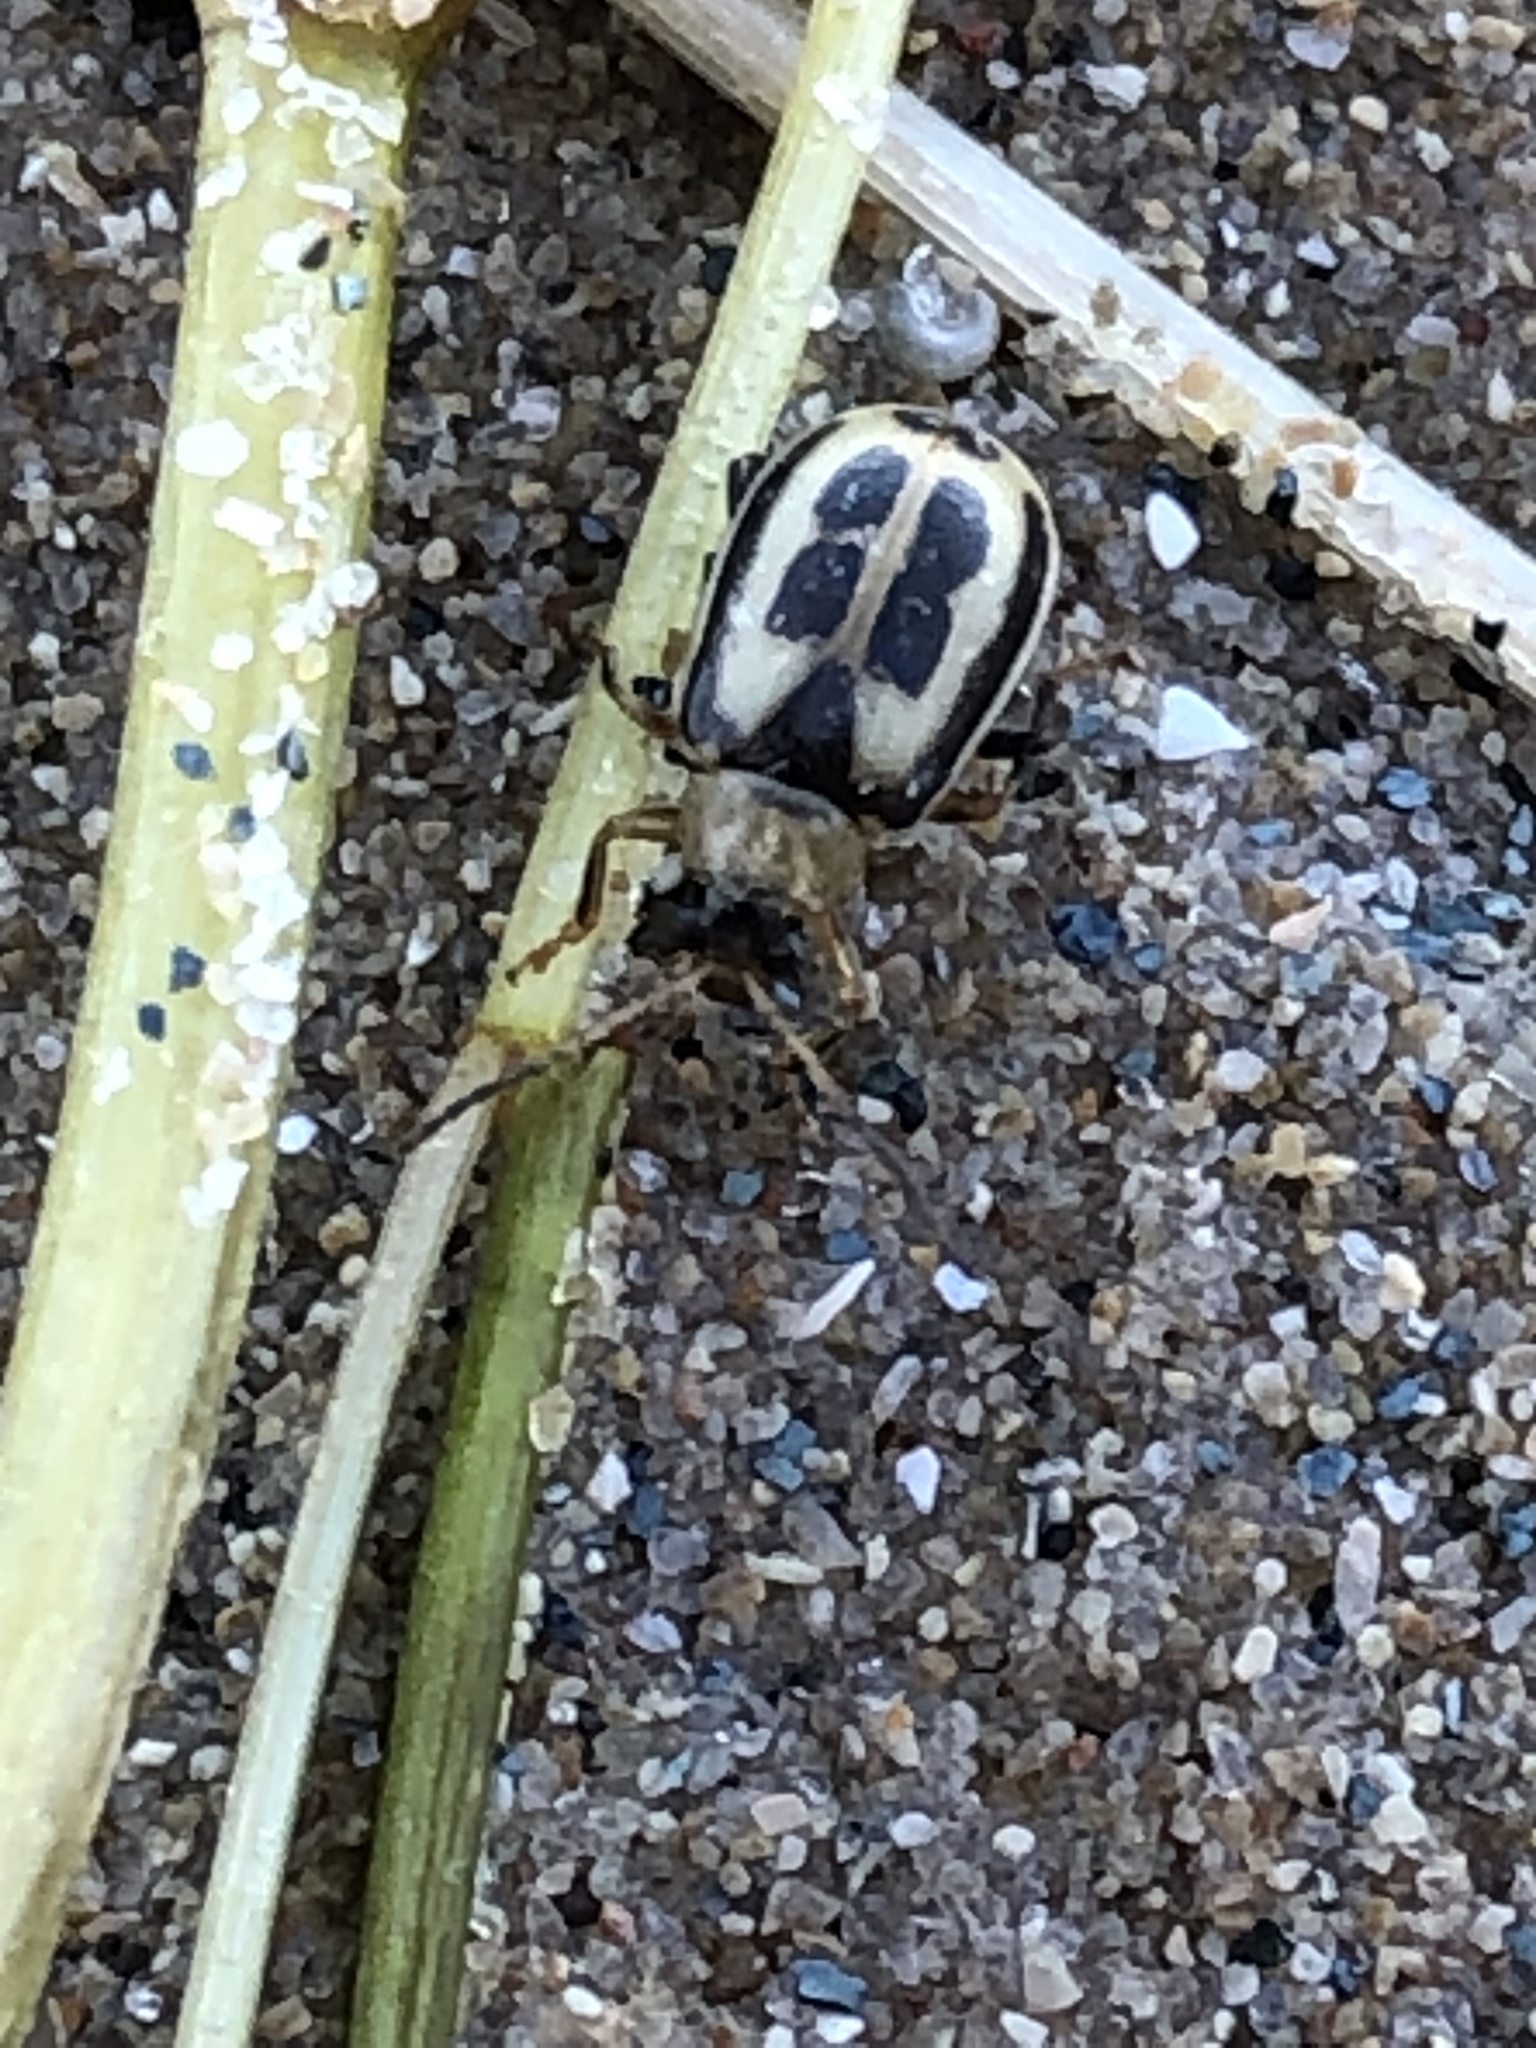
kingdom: Animalia
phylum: Arthropoda
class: Insecta
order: Coleoptera
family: Chrysomelidae
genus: Cerotoma
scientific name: Cerotoma trifurcata
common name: Bean leaf beetle
